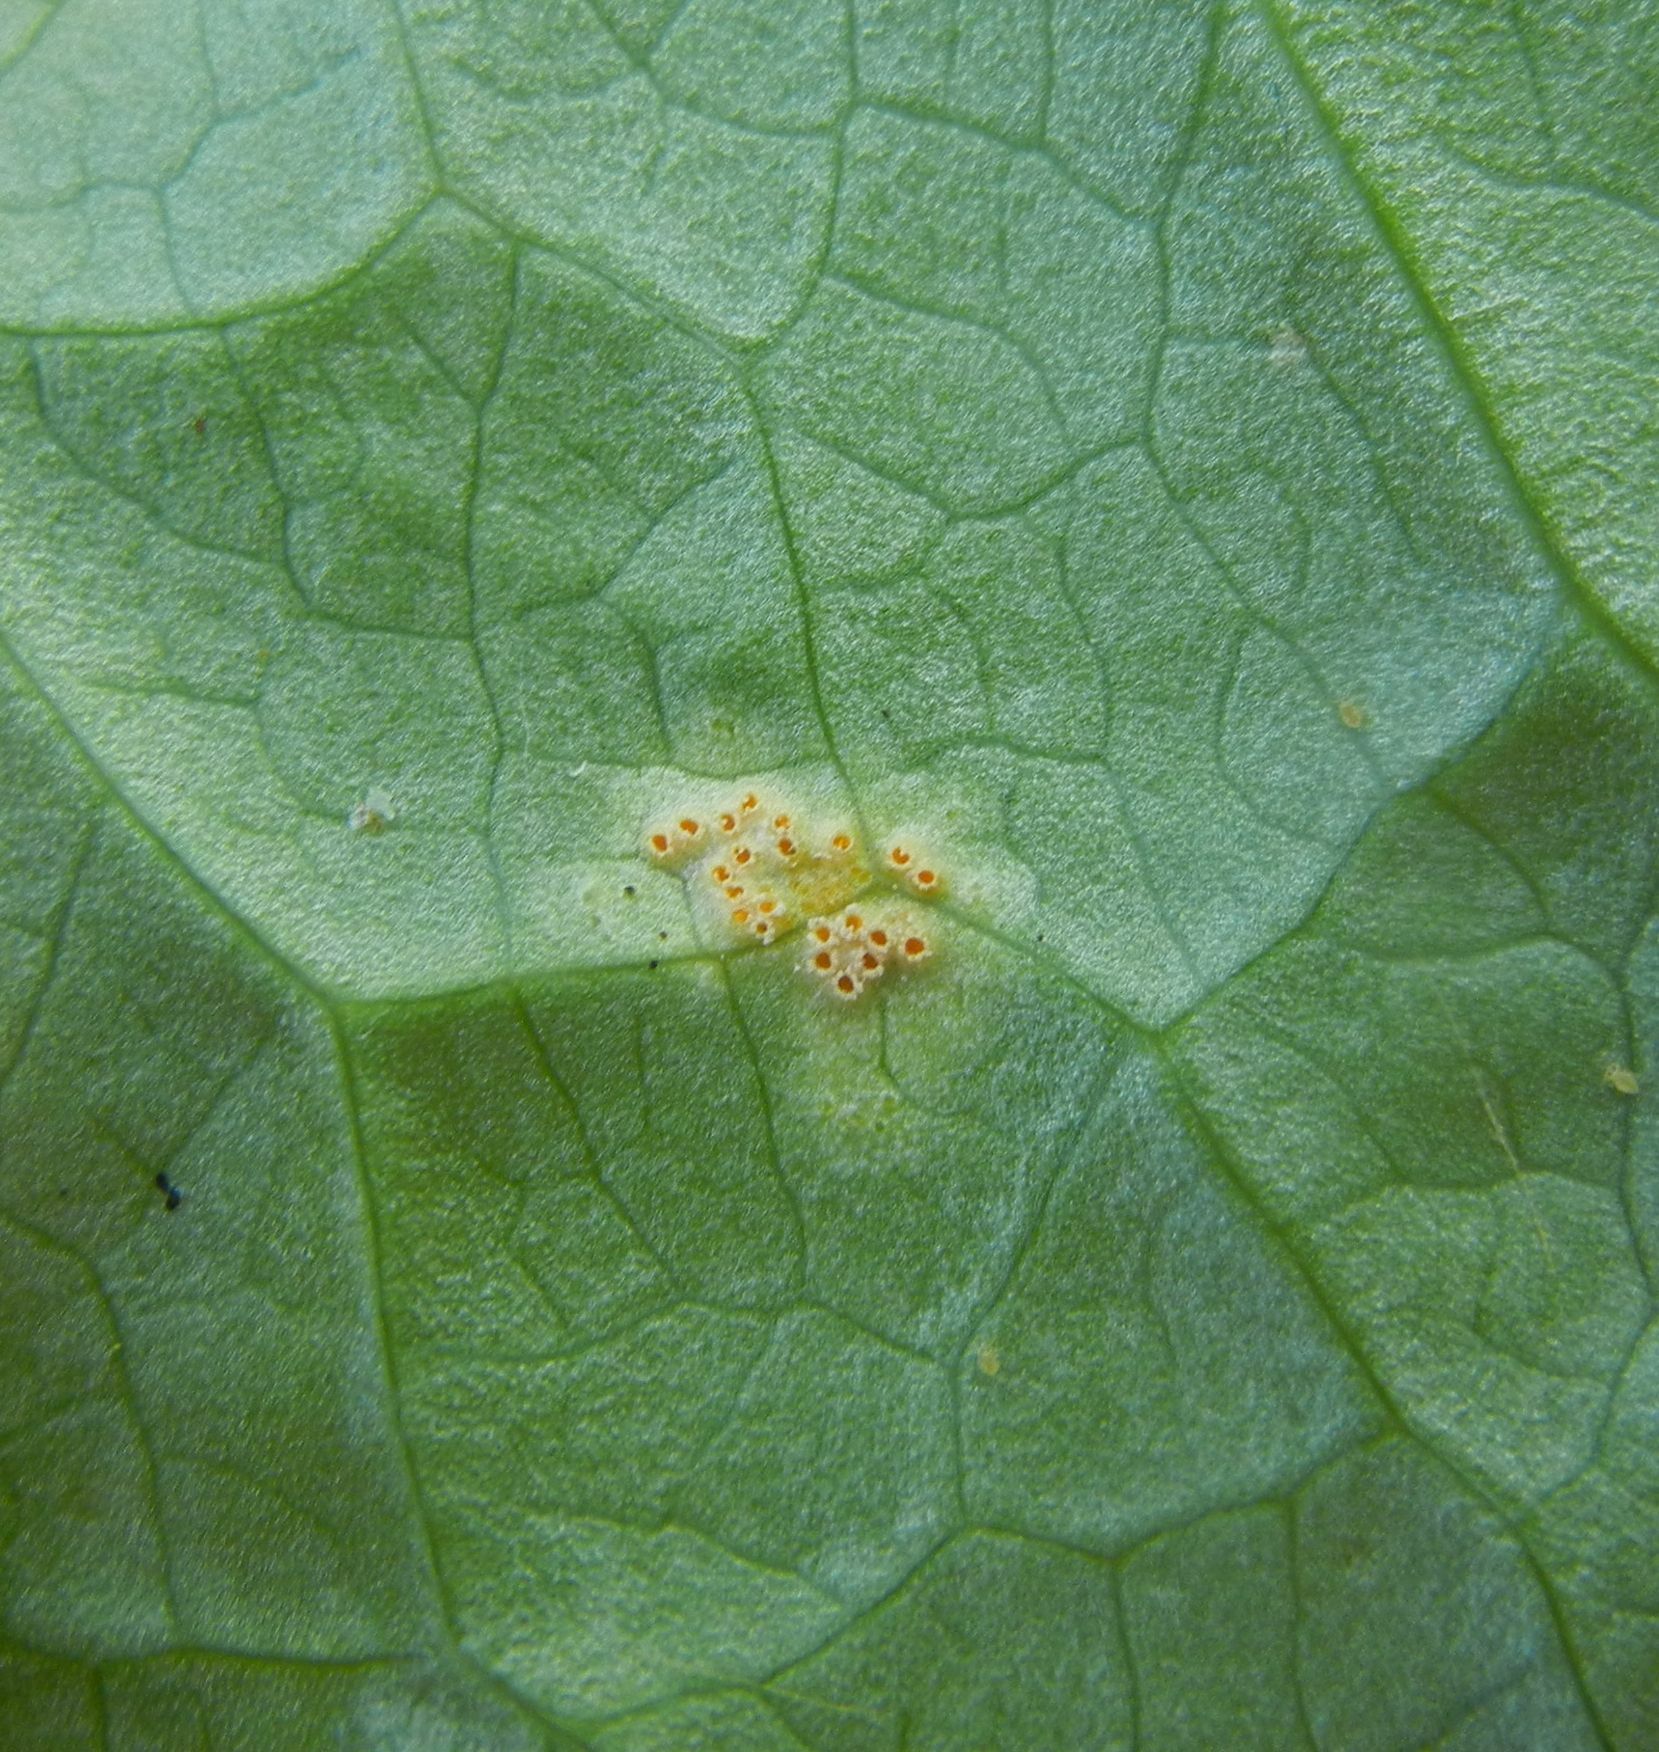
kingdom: Fungi
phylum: Basidiomycota
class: Pucciniomycetes
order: Pucciniales
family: Pucciniaceae
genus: Puccinia
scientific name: Puccinia sessilis
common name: Arum rust
